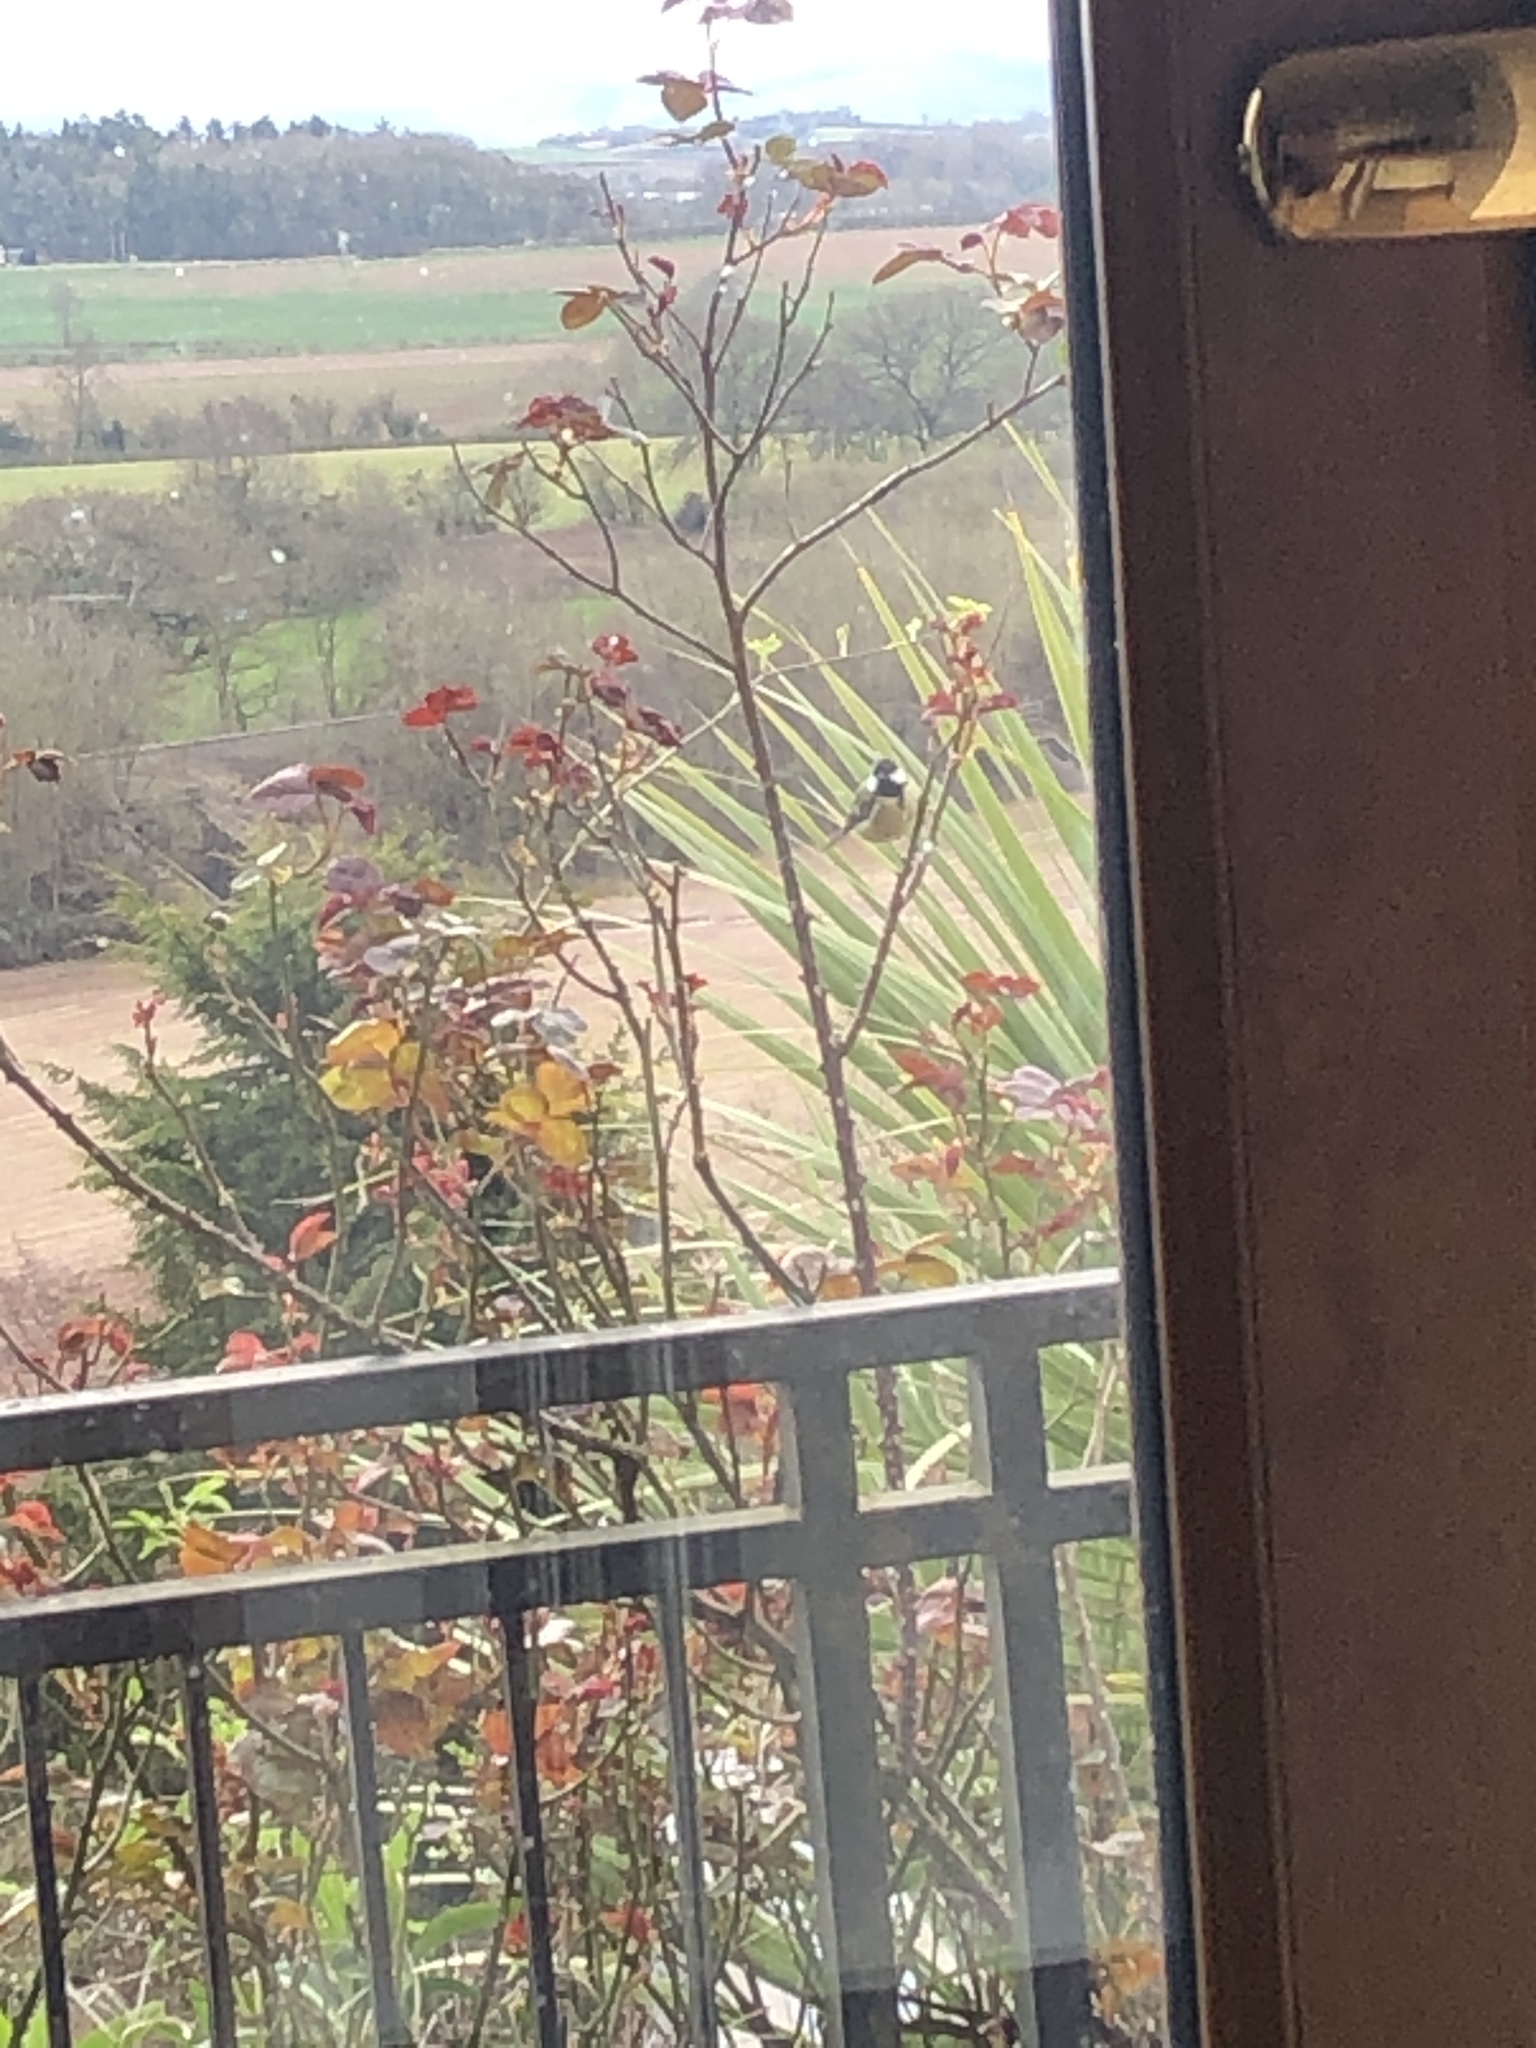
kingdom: Animalia
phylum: Chordata
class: Aves
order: Passeriformes
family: Paridae
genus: Parus
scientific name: Parus major
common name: Great tit
